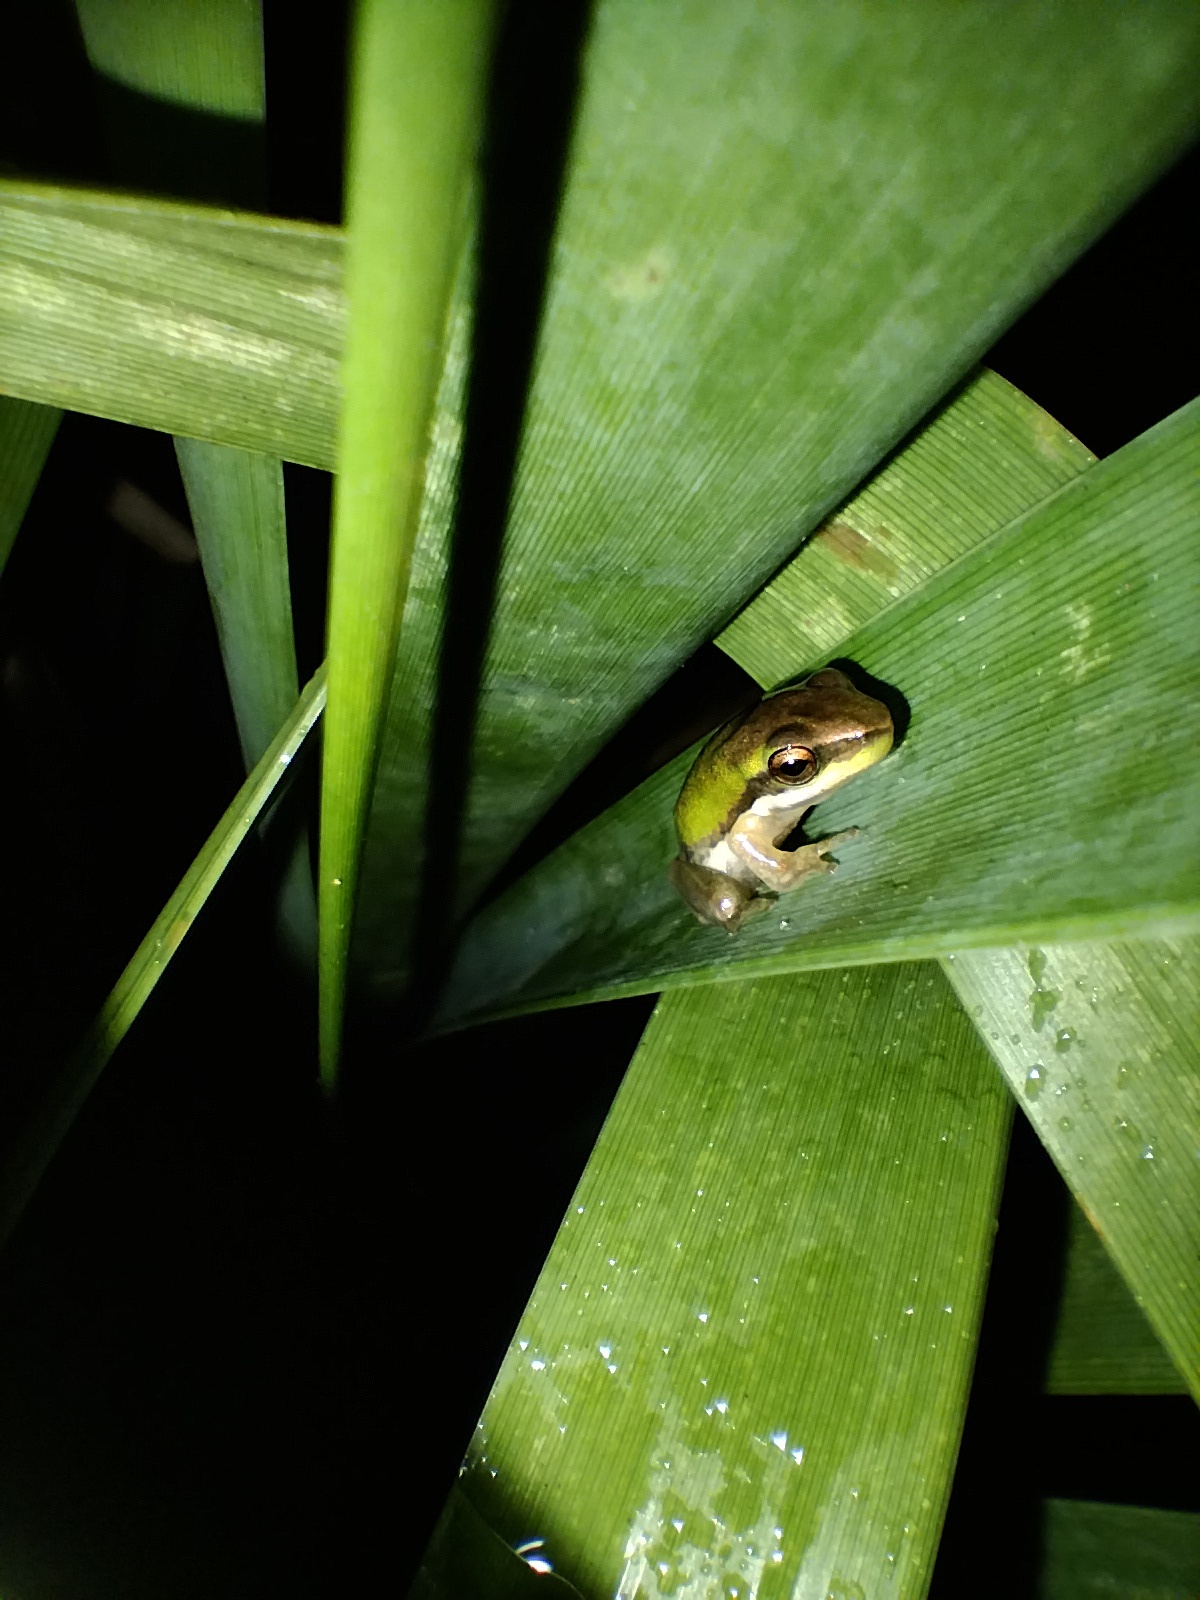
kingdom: Animalia
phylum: Chordata
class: Amphibia
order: Anura
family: Pelodryadidae
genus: Litoria
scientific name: Litoria fallax
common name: Eastern dwarf treefrog
